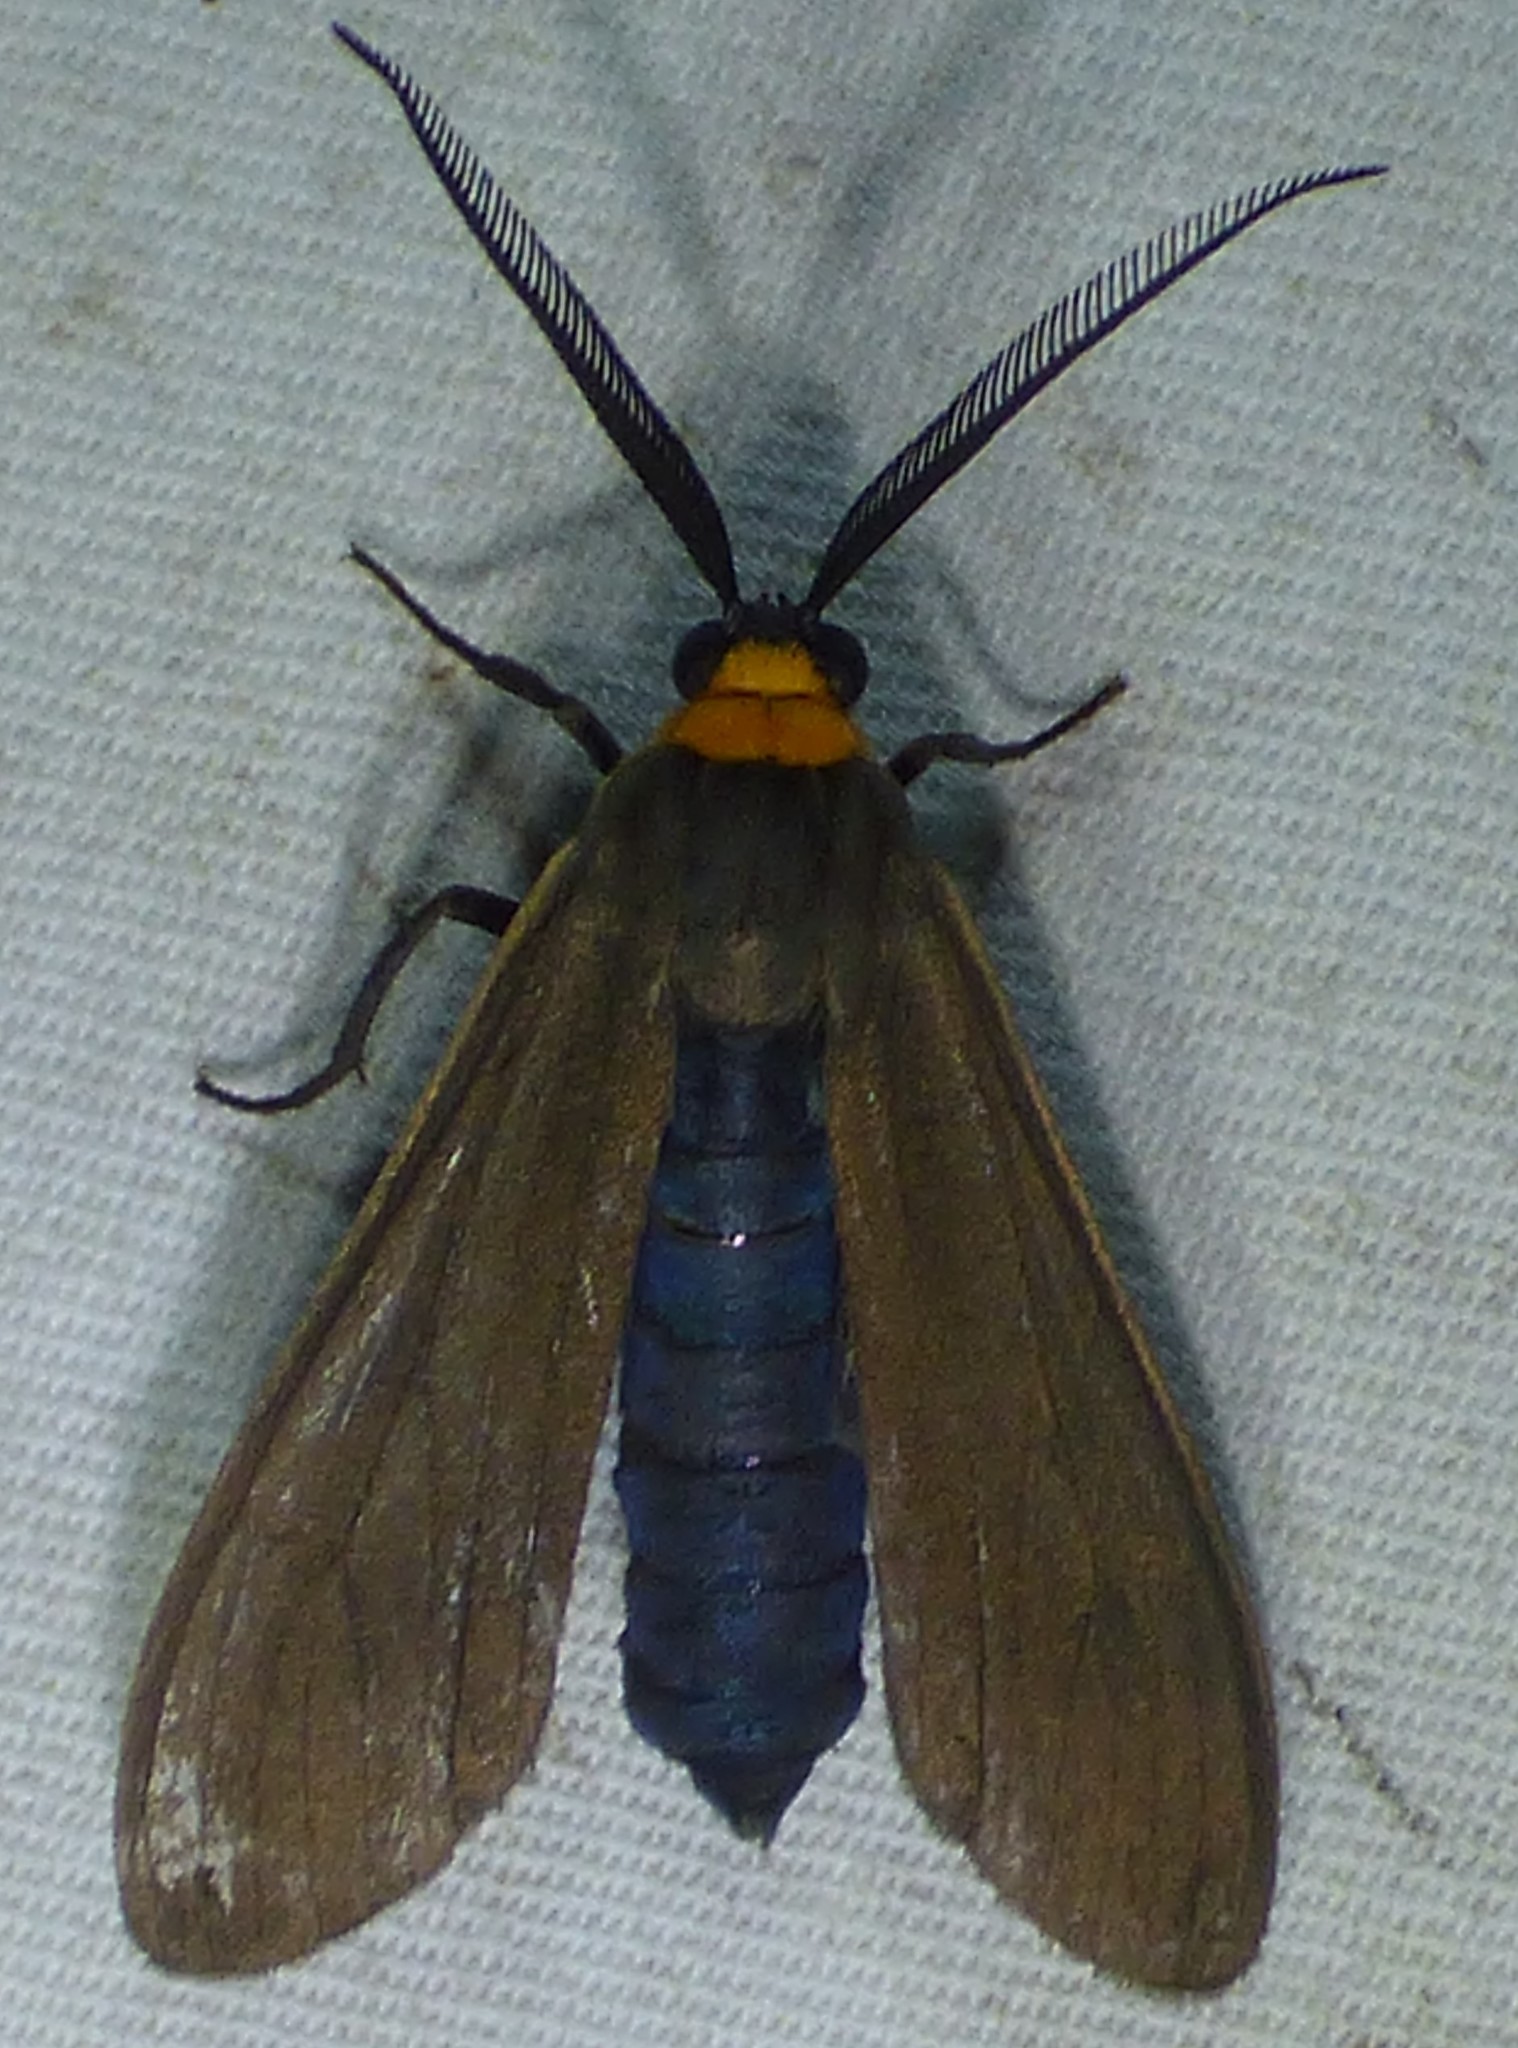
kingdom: Animalia
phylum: Arthropoda
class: Insecta
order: Lepidoptera
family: Erebidae
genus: Cisseps
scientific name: Cisseps fulvicollis
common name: Yellow-collared scape moth
